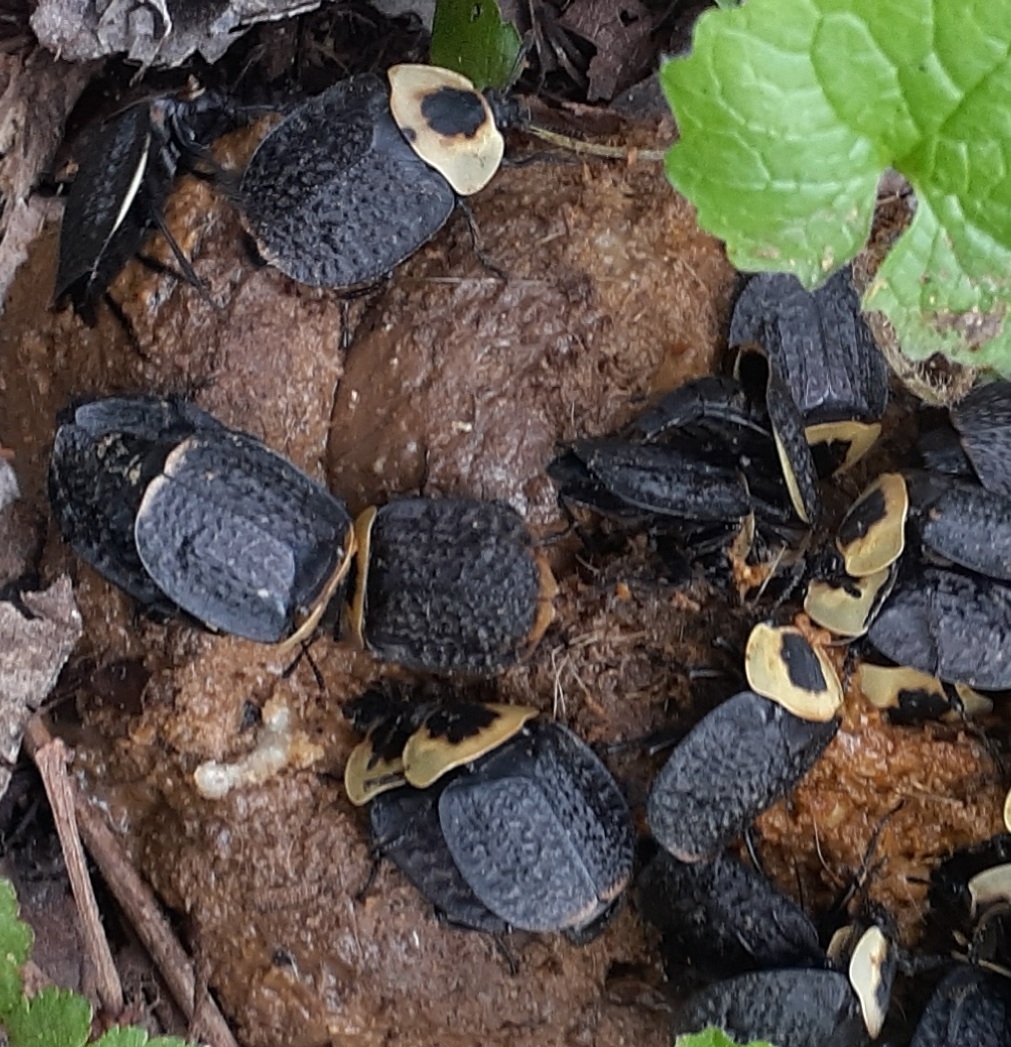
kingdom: Animalia
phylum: Arthropoda
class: Insecta
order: Coleoptera
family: Staphylinidae
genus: Necrophila
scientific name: Necrophila americana
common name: American carrion beetle
